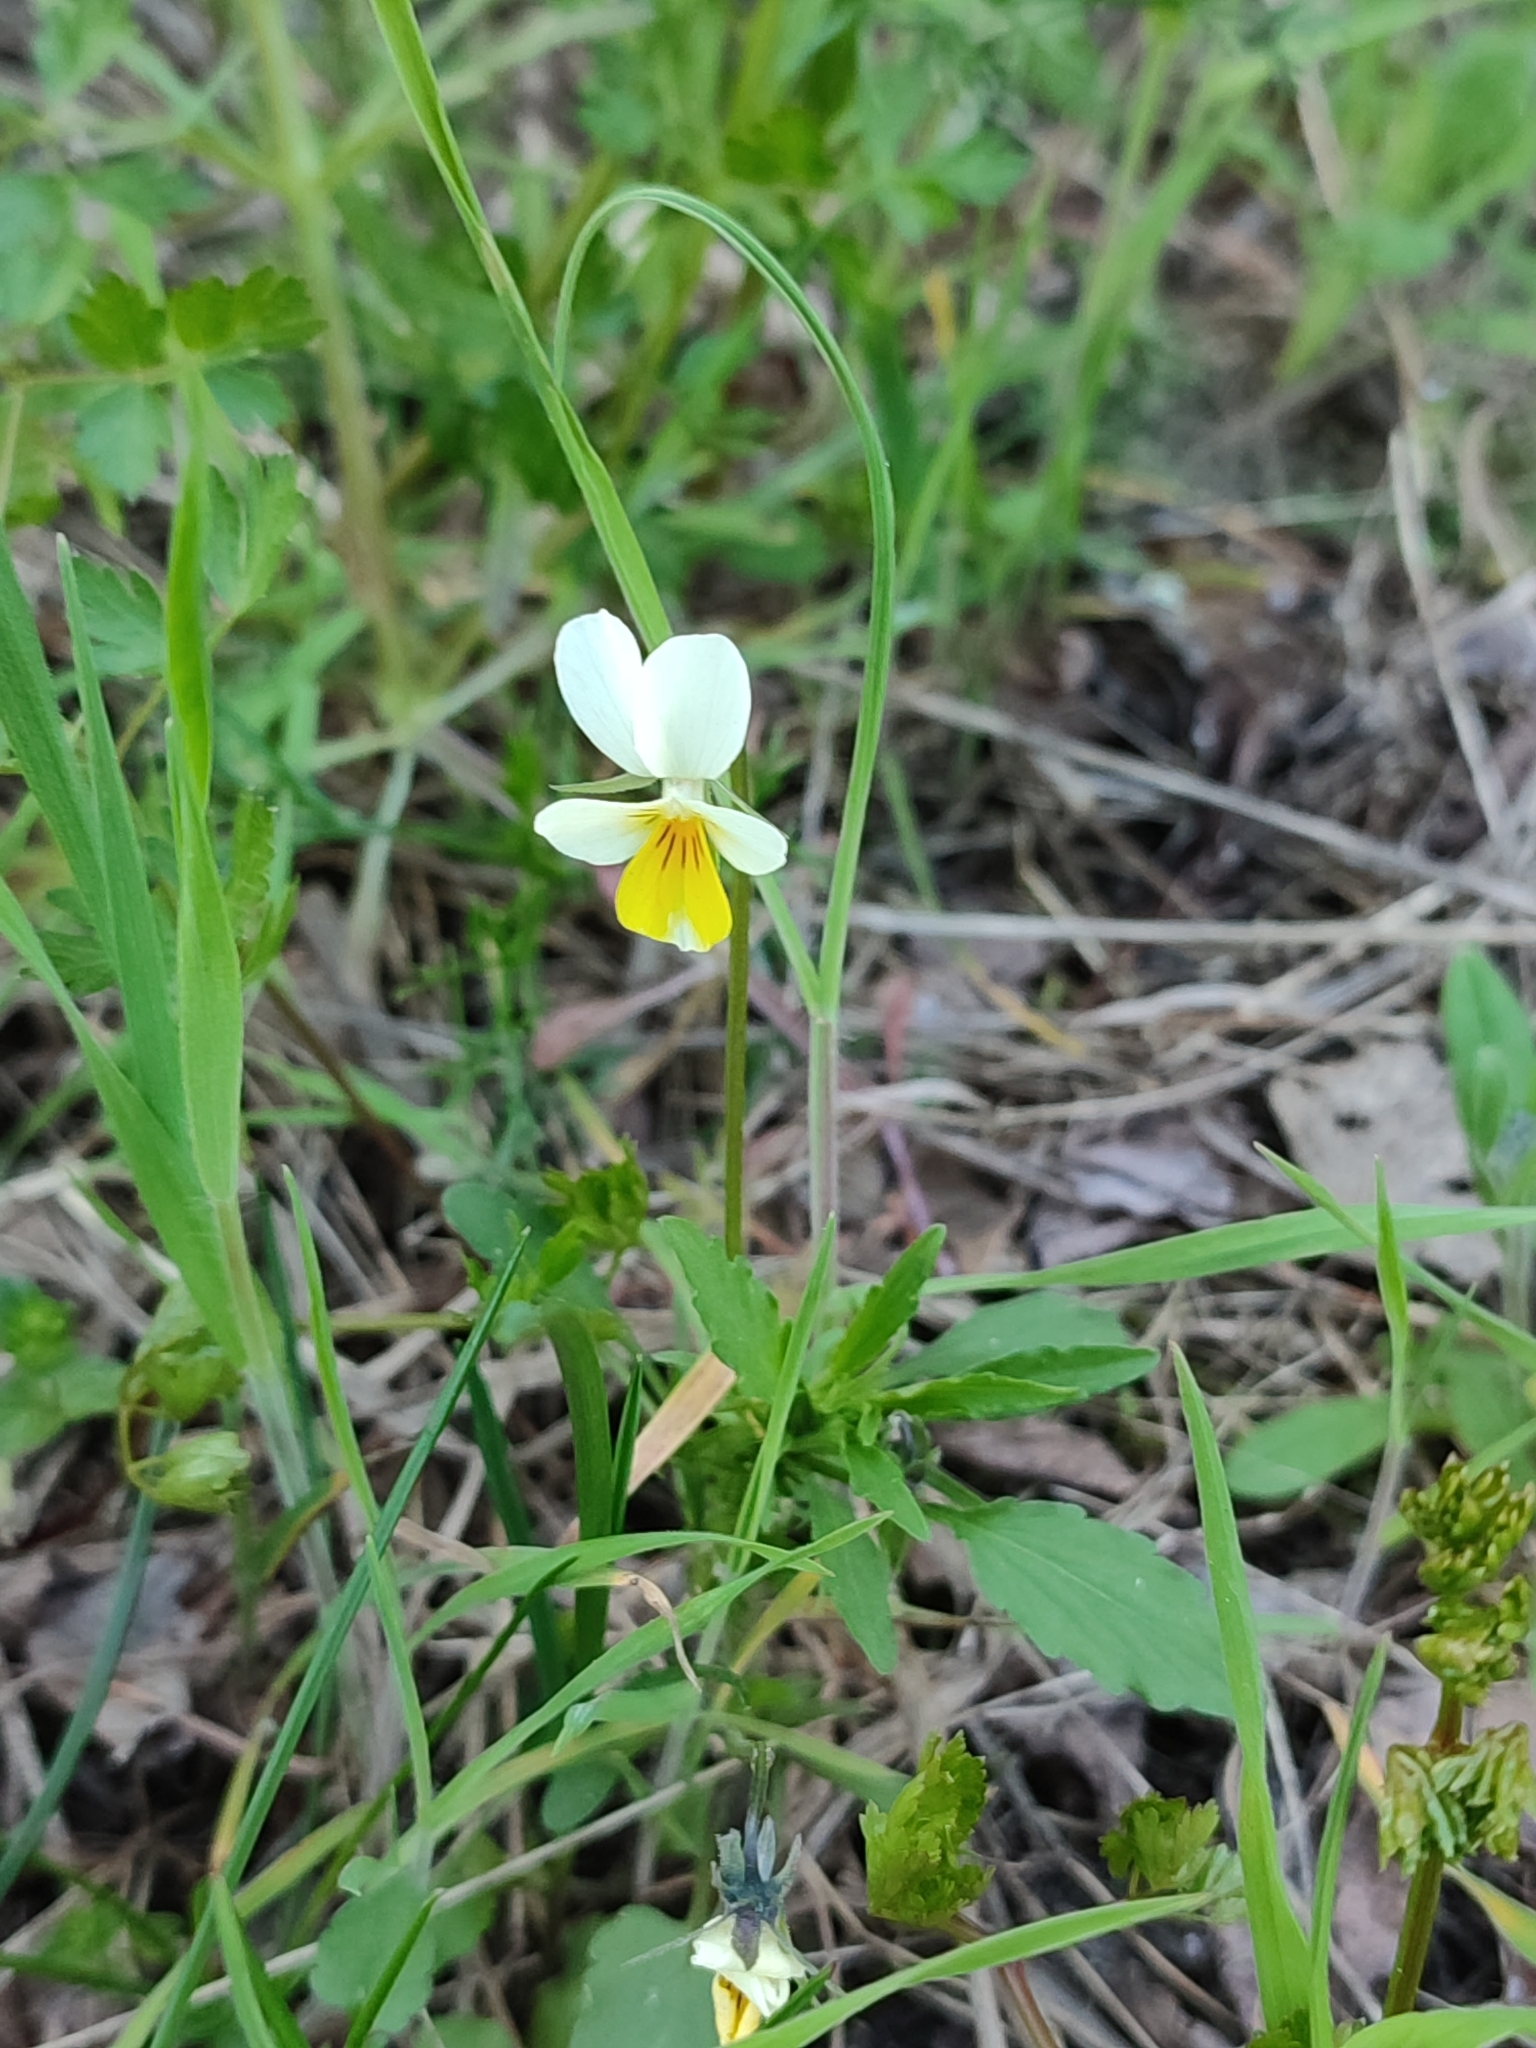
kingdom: Plantae
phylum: Tracheophyta
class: Magnoliopsida
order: Malpighiales
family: Violaceae
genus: Viola
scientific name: Viola arvensis
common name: Field pansy
